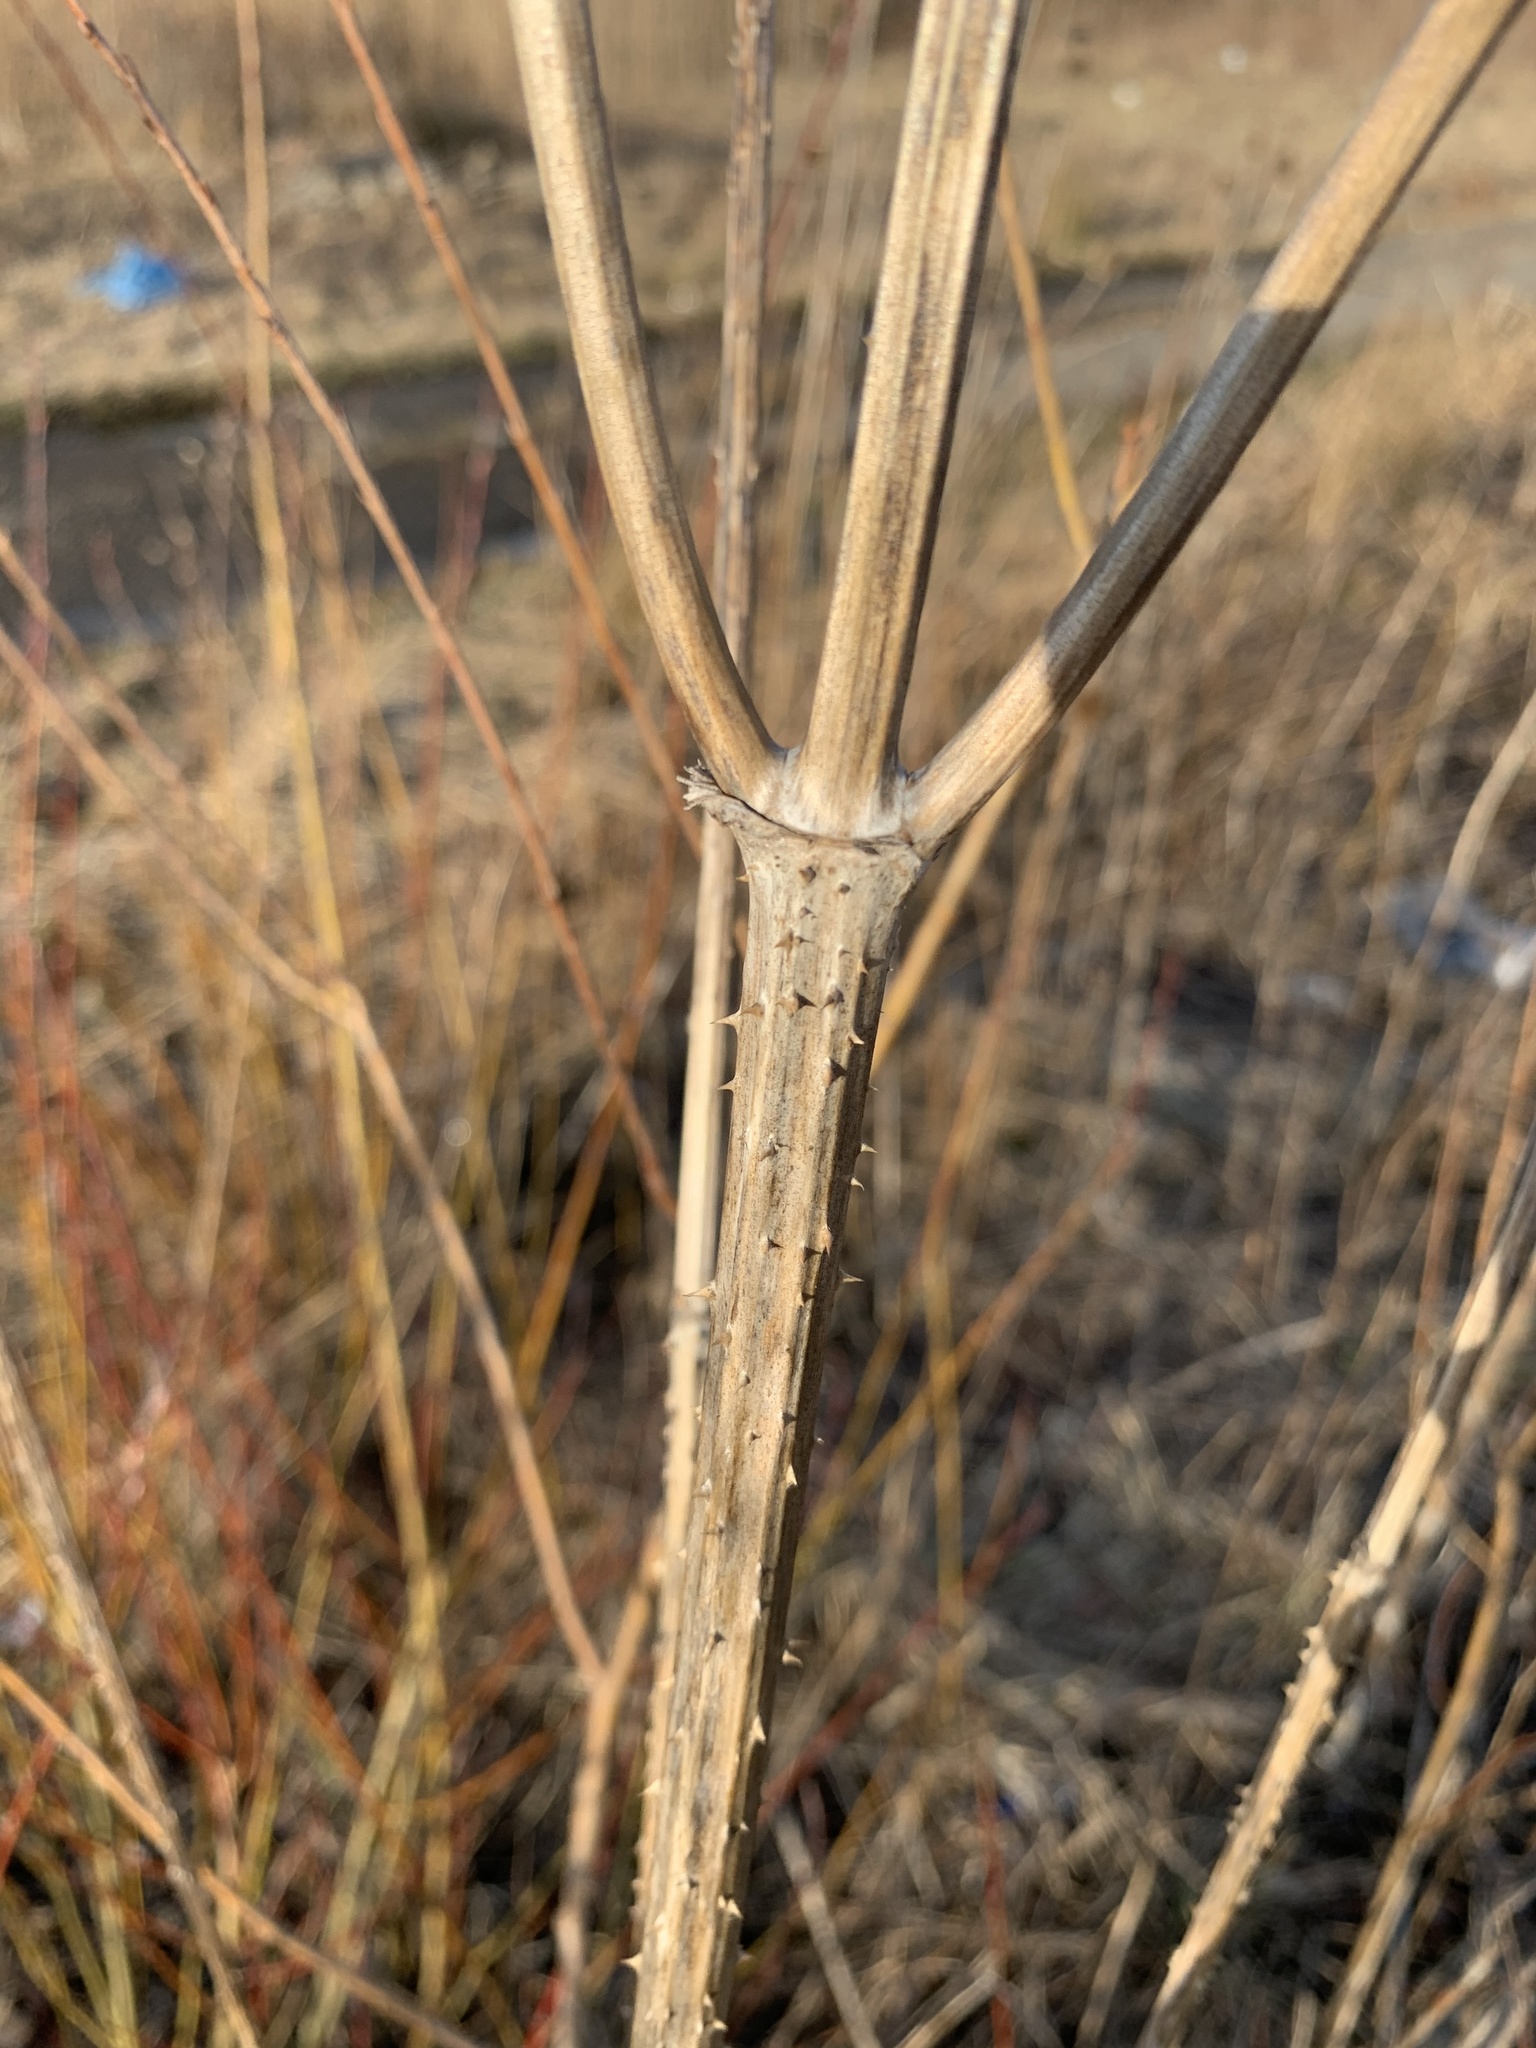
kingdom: Plantae
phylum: Tracheophyta
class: Magnoliopsida
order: Dipsacales
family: Caprifoliaceae
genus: Dipsacus
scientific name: Dipsacus fullonum
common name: Teasel
